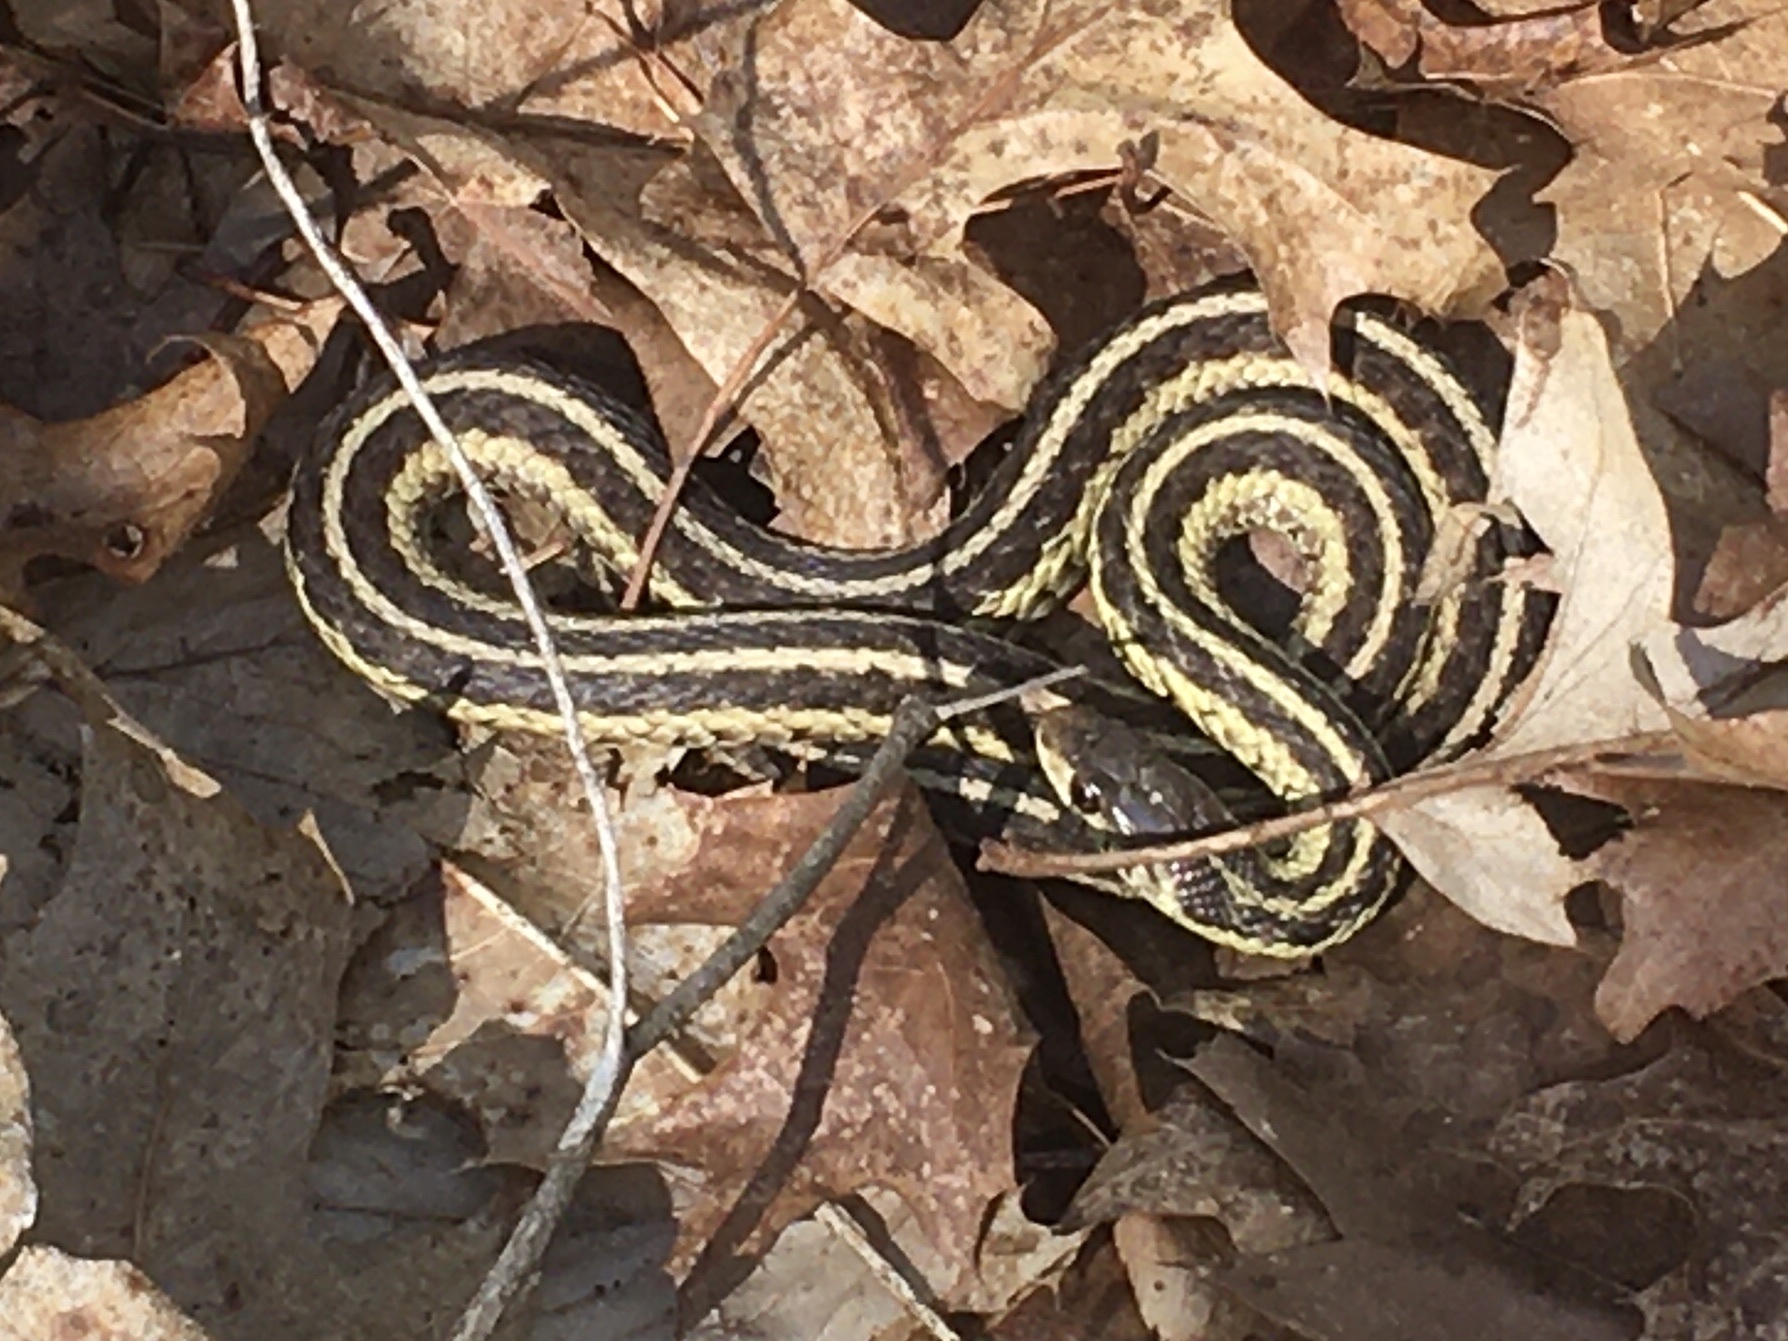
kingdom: Animalia
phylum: Chordata
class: Squamata
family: Colubridae
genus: Thamnophis
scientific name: Thamnophis sirtalis
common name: Common garter snake
